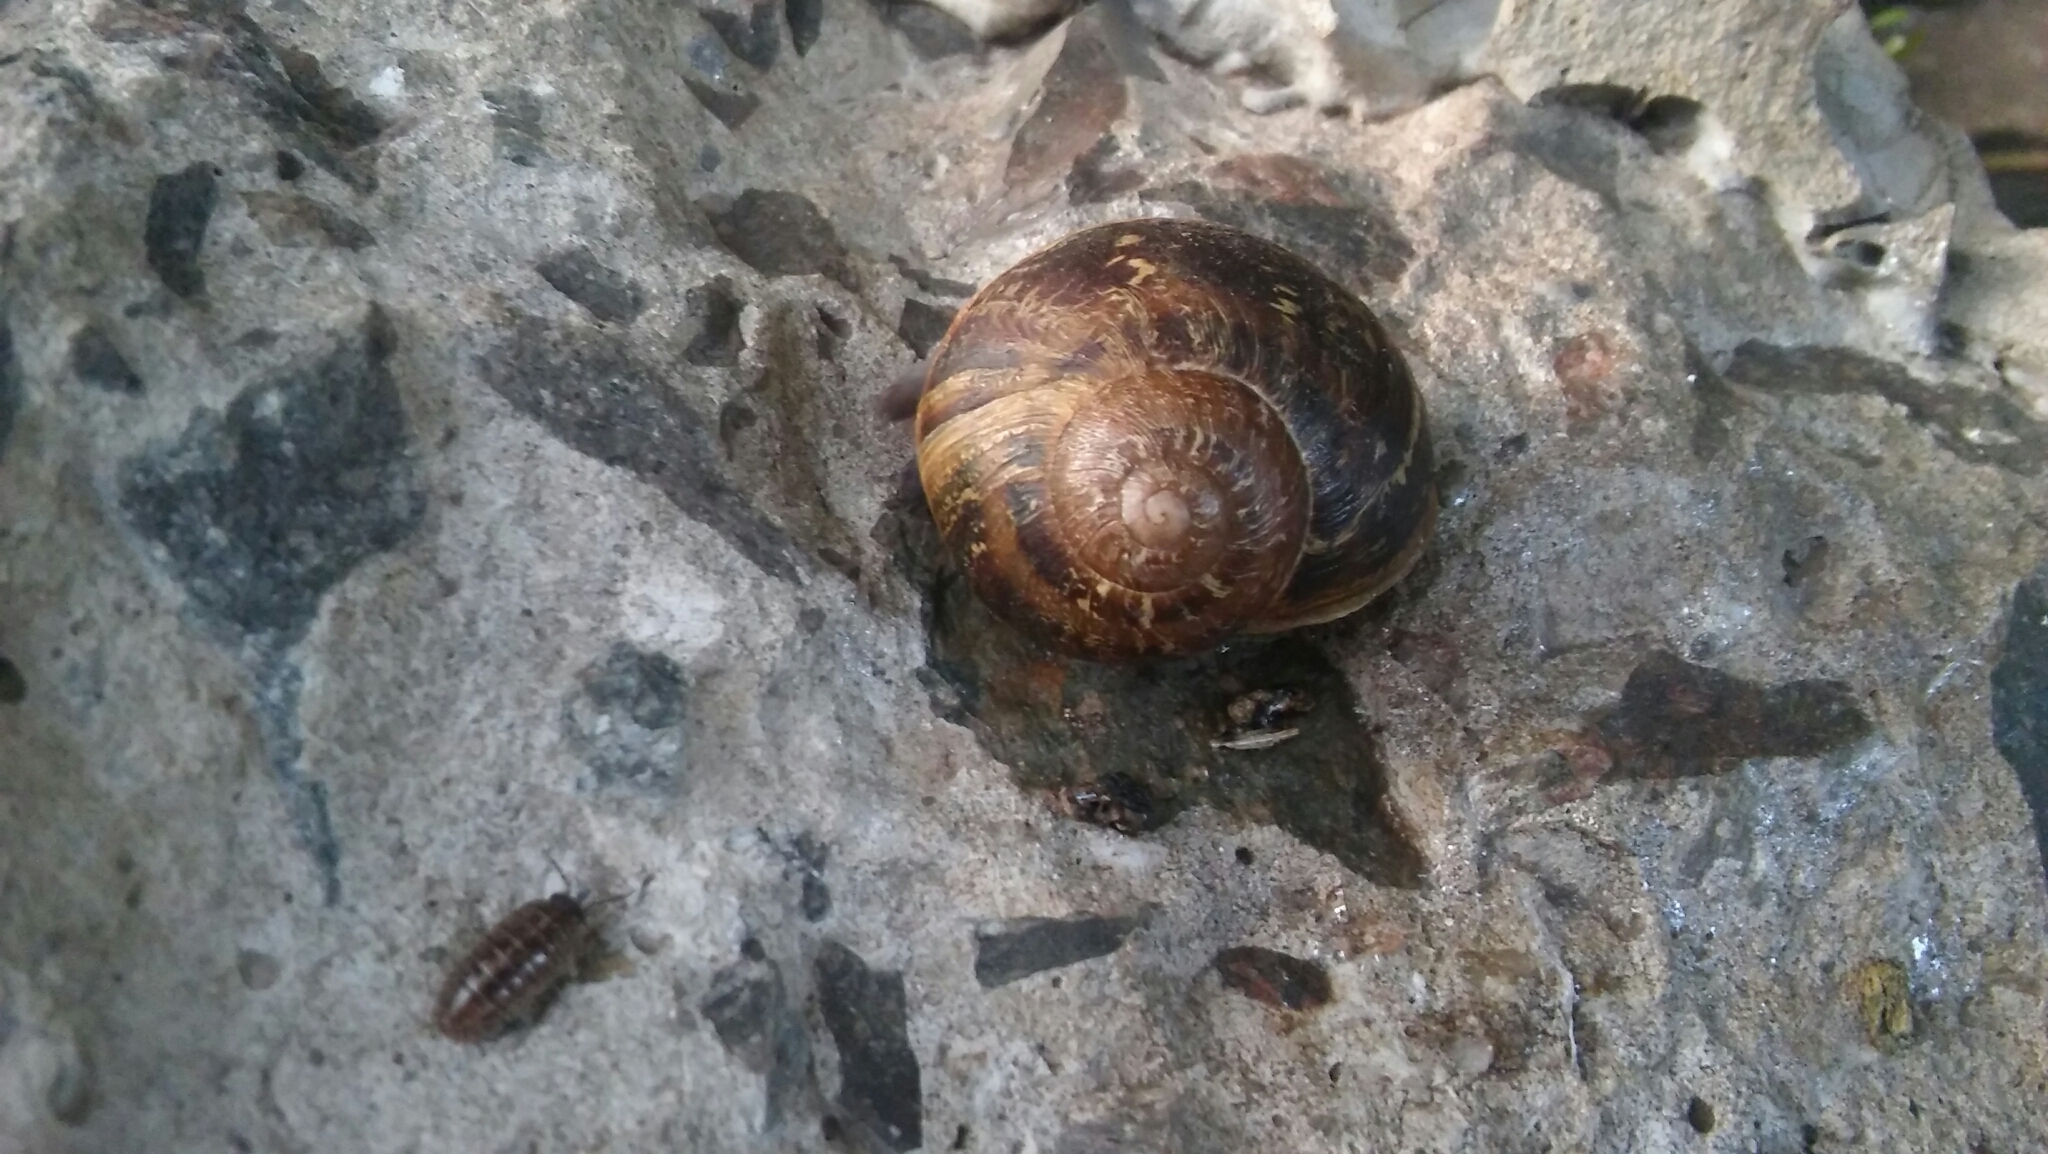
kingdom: Animalia
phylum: Mollusca
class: Gastropoda
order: Stylommatophora
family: Helicidae
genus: Cornu
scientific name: Cornu aspersum
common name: Brown garden snail
